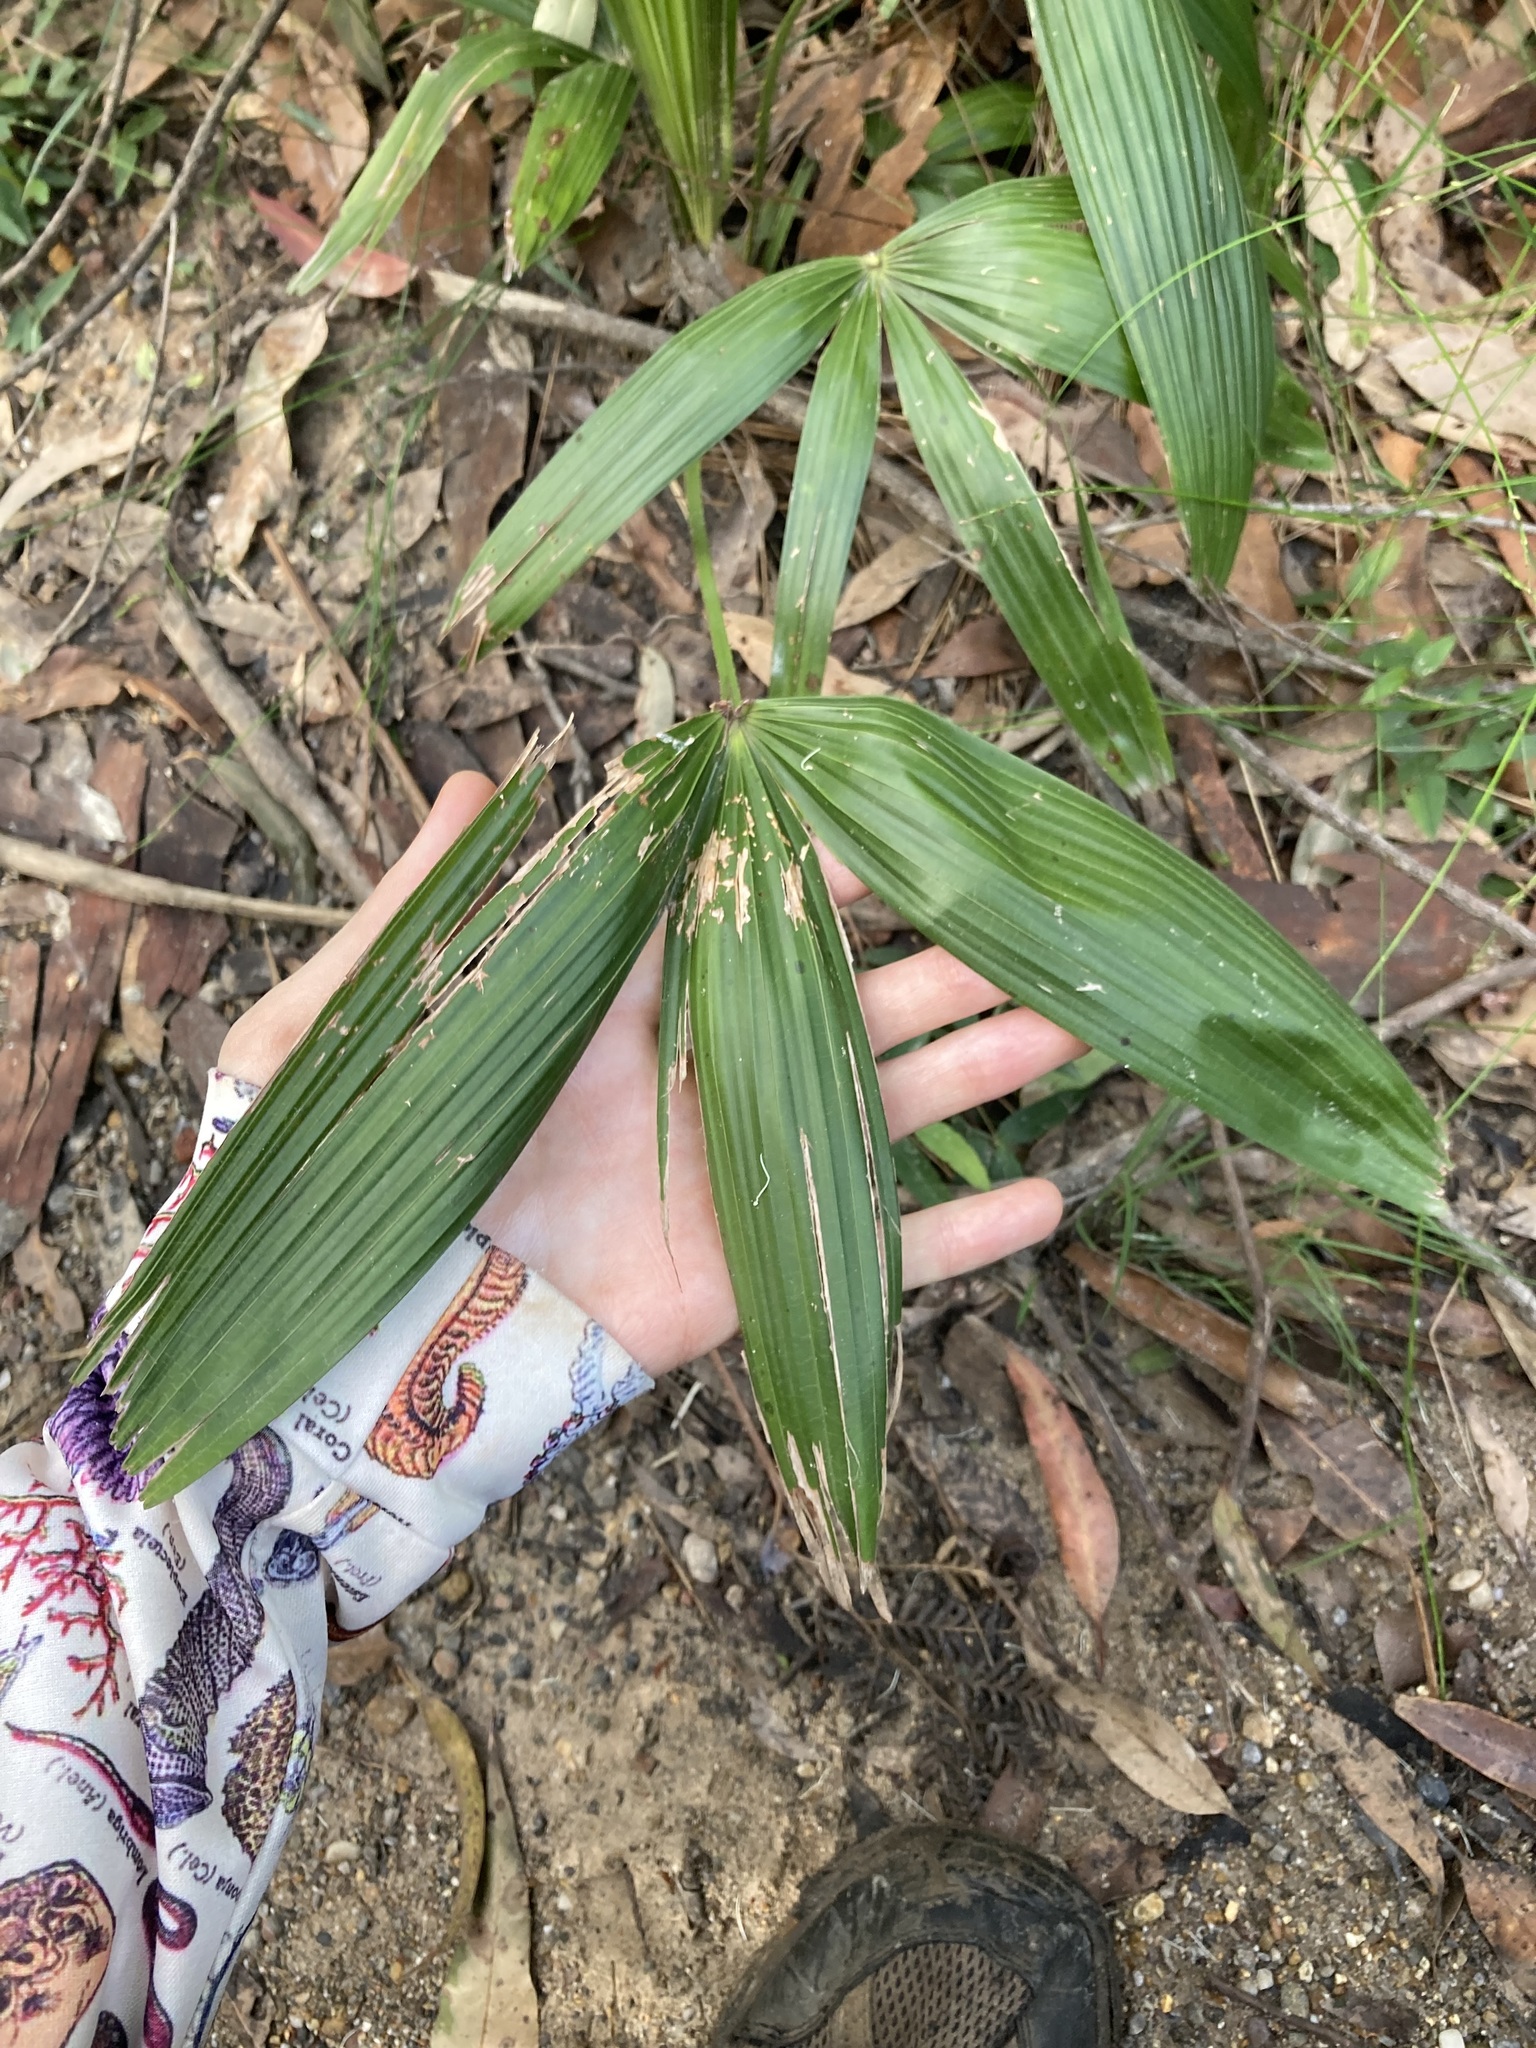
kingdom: Plantae
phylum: Tracheophyta
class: Liliopsida
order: Arecales
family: Arecaceae
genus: Livistona
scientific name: Livistona australis
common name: Cabbage fan palm
